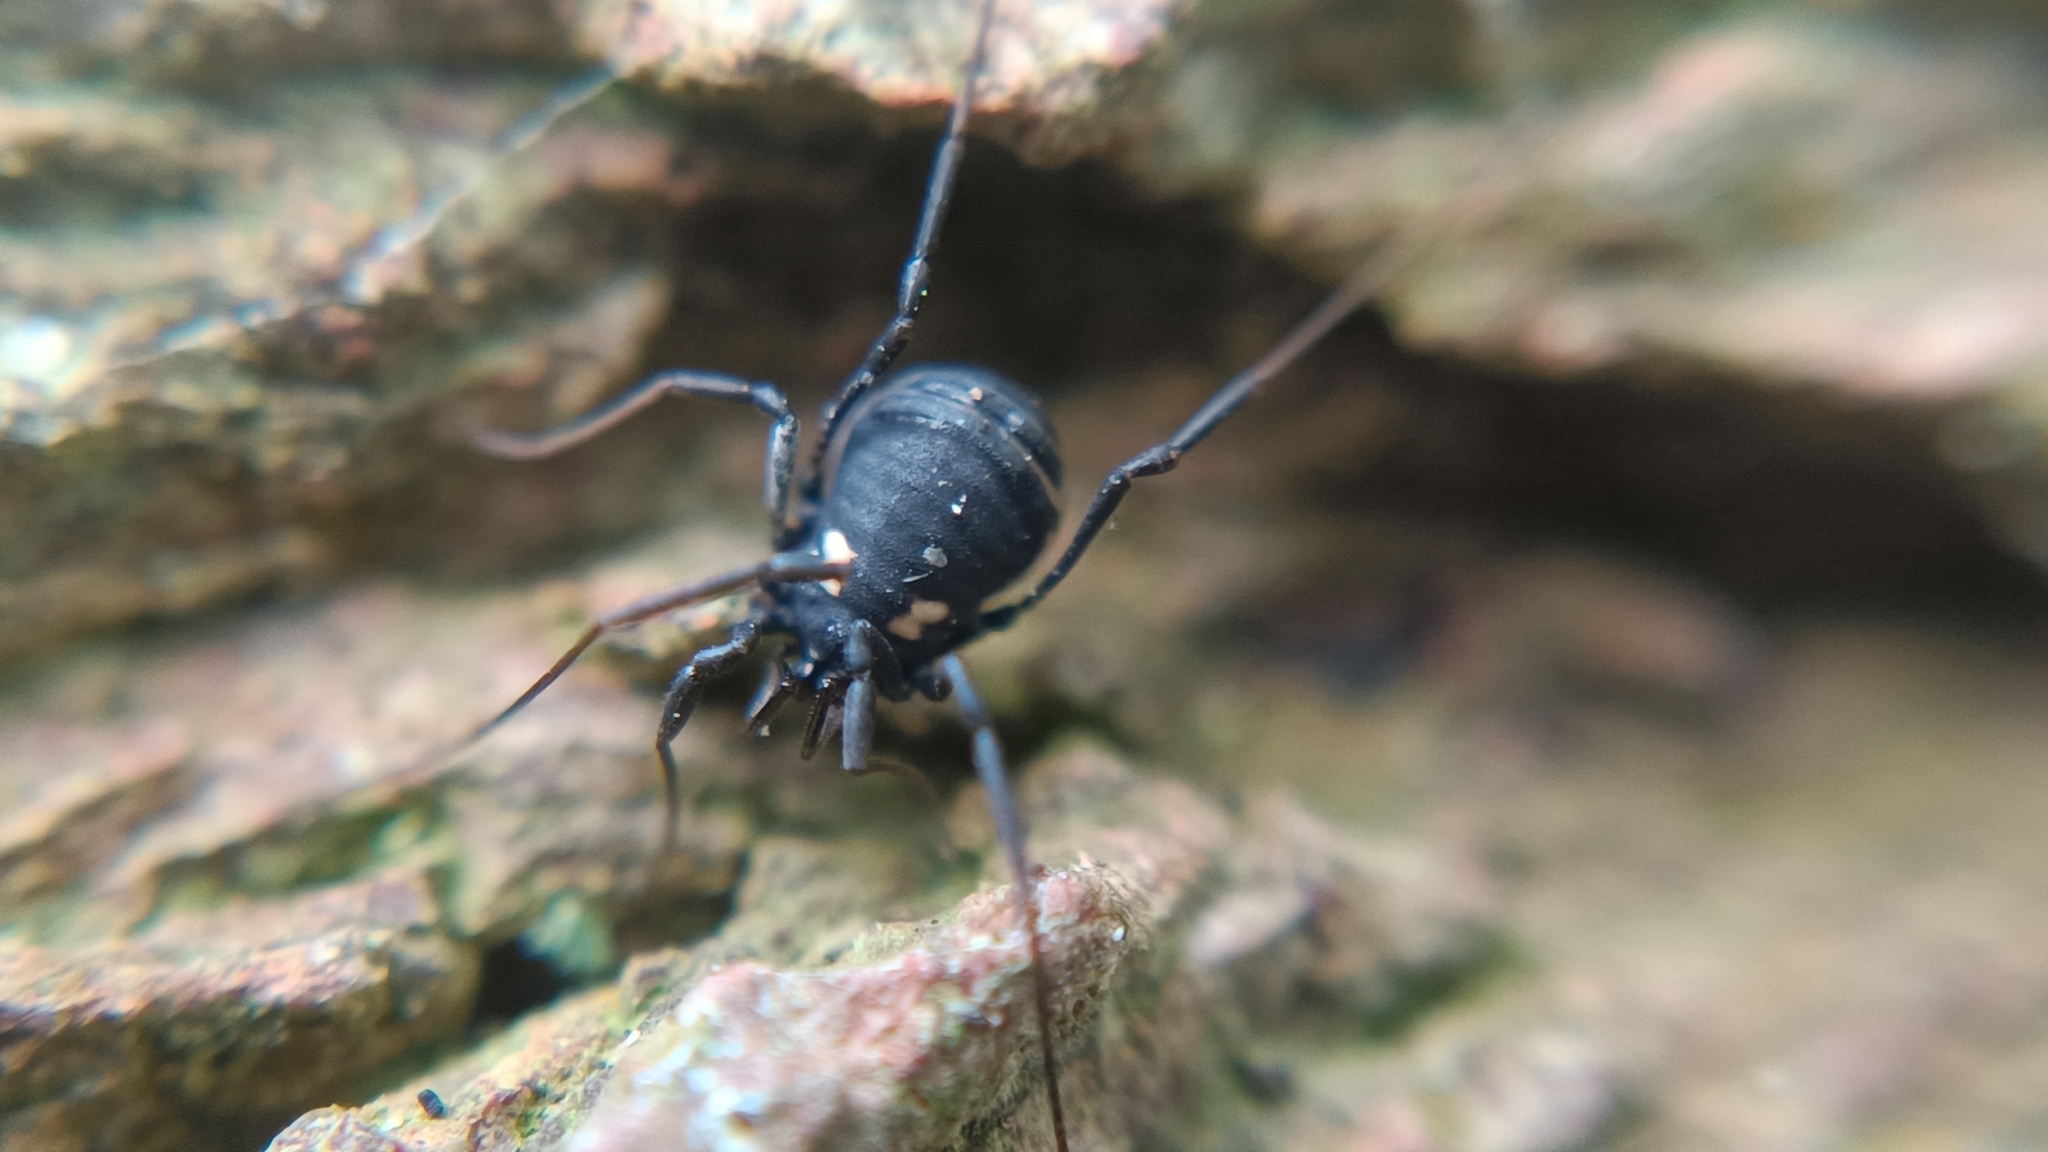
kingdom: Animalia
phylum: Arthropoda
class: Arachnida
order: Opiliones
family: Nemastomatidae
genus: Nemastoma
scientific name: Nemastoma bimaculatum
